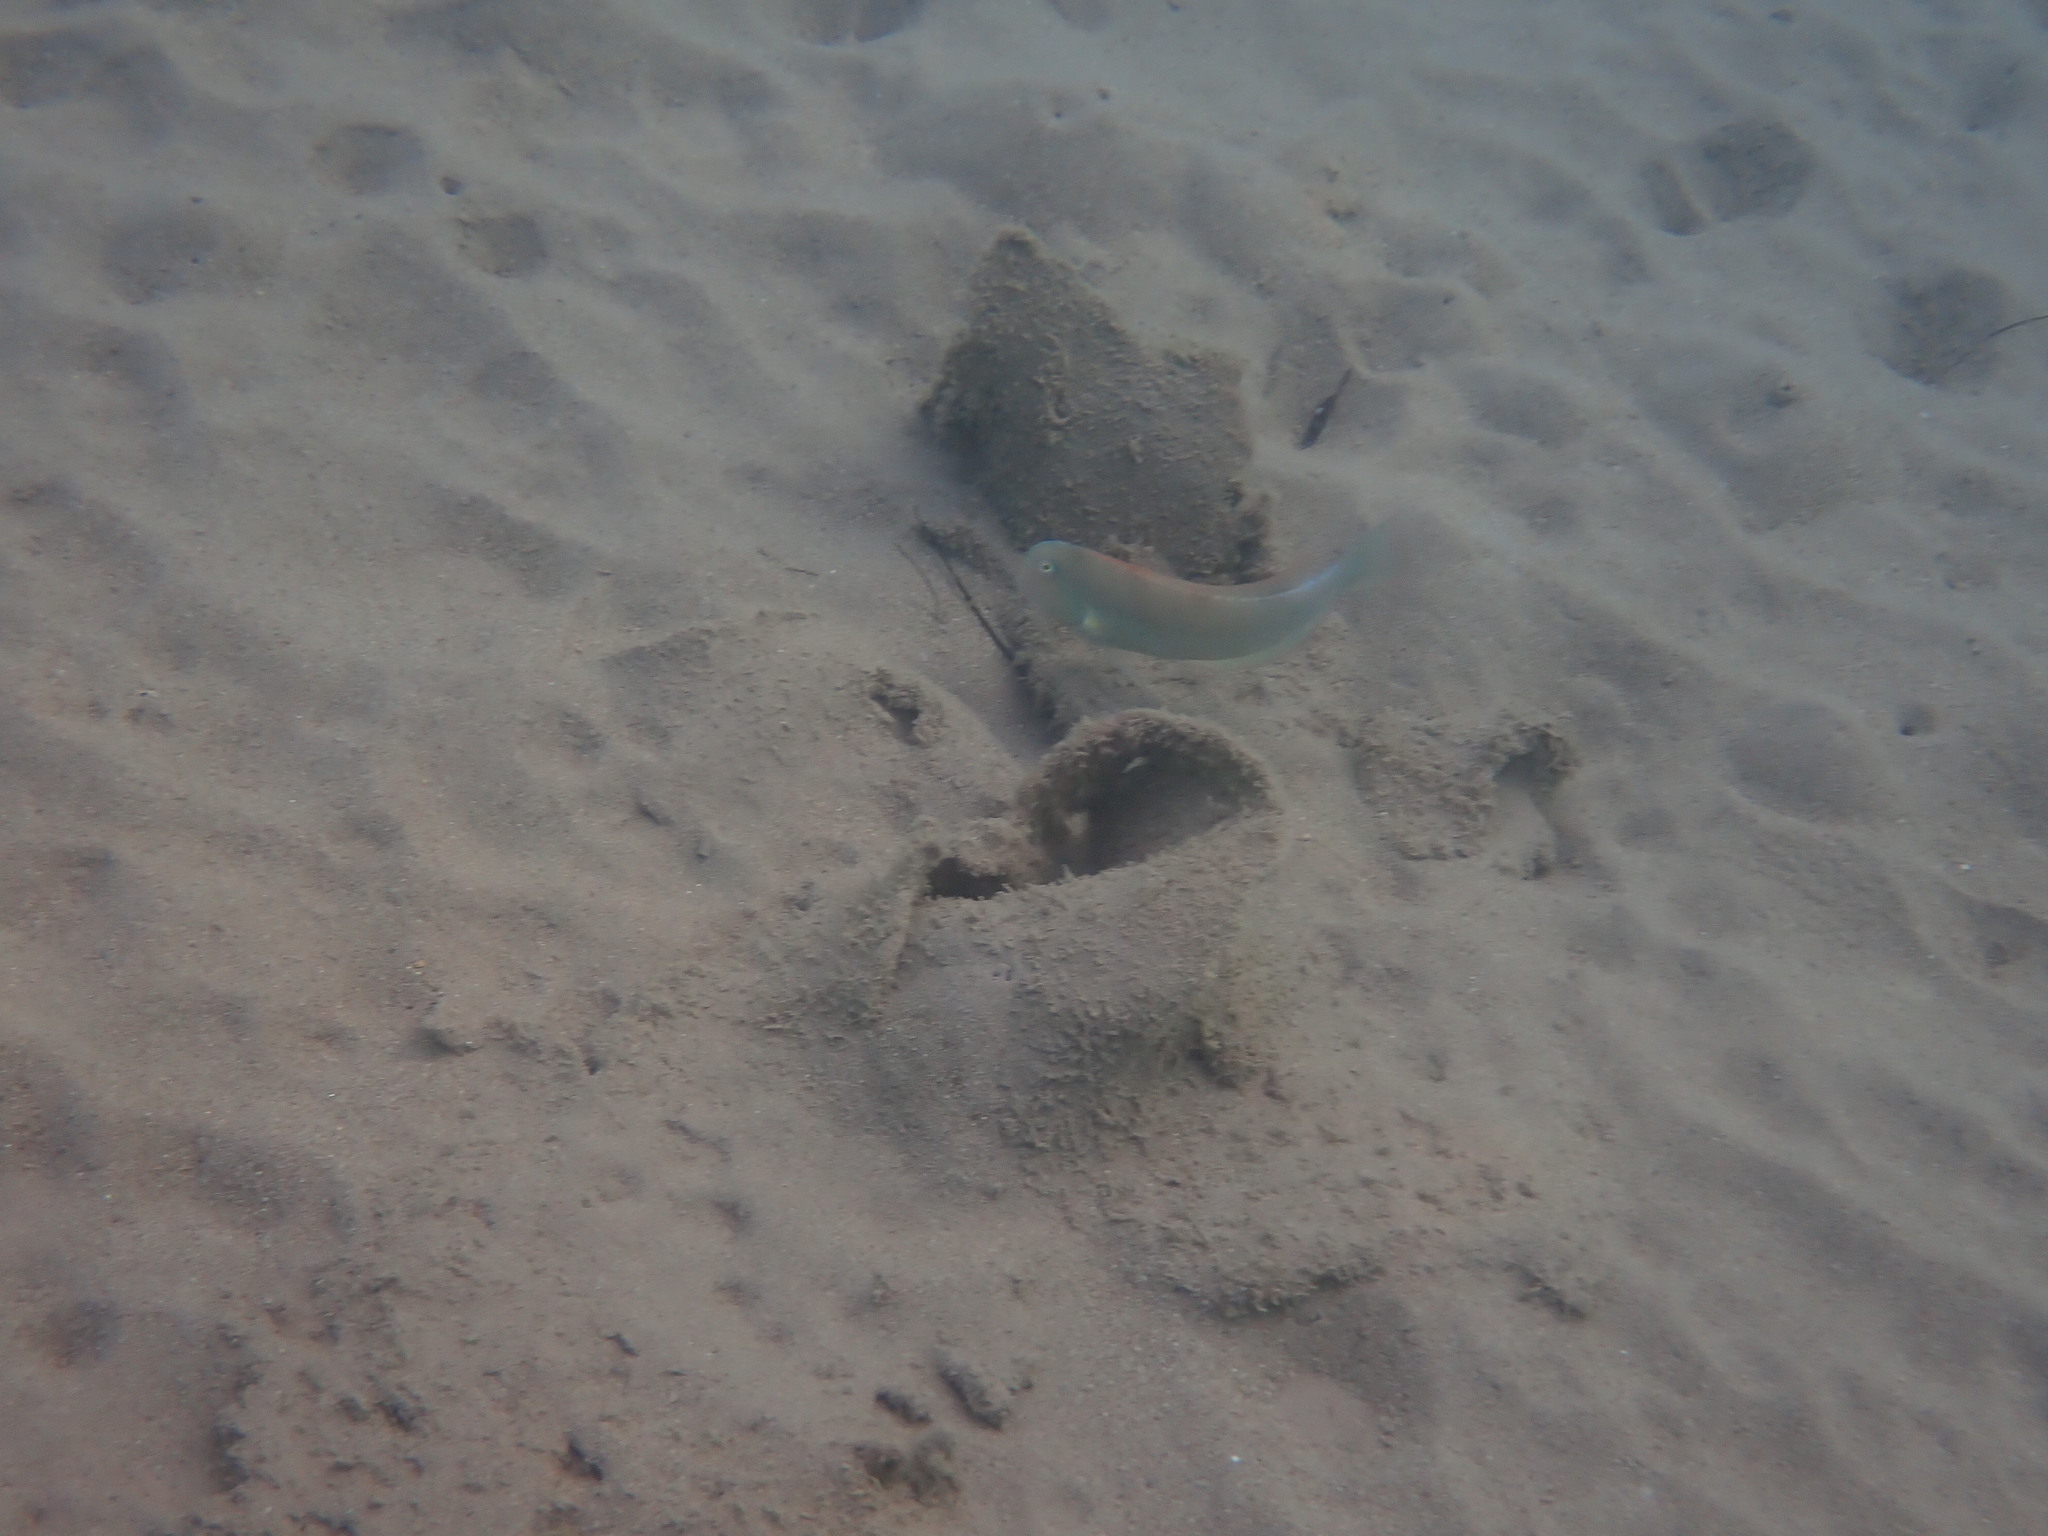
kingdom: Animalia
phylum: Chordata
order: Perciformes
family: Labridae
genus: Xyrichtys
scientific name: Xyrichtys novacula
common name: Pearly razorfish
